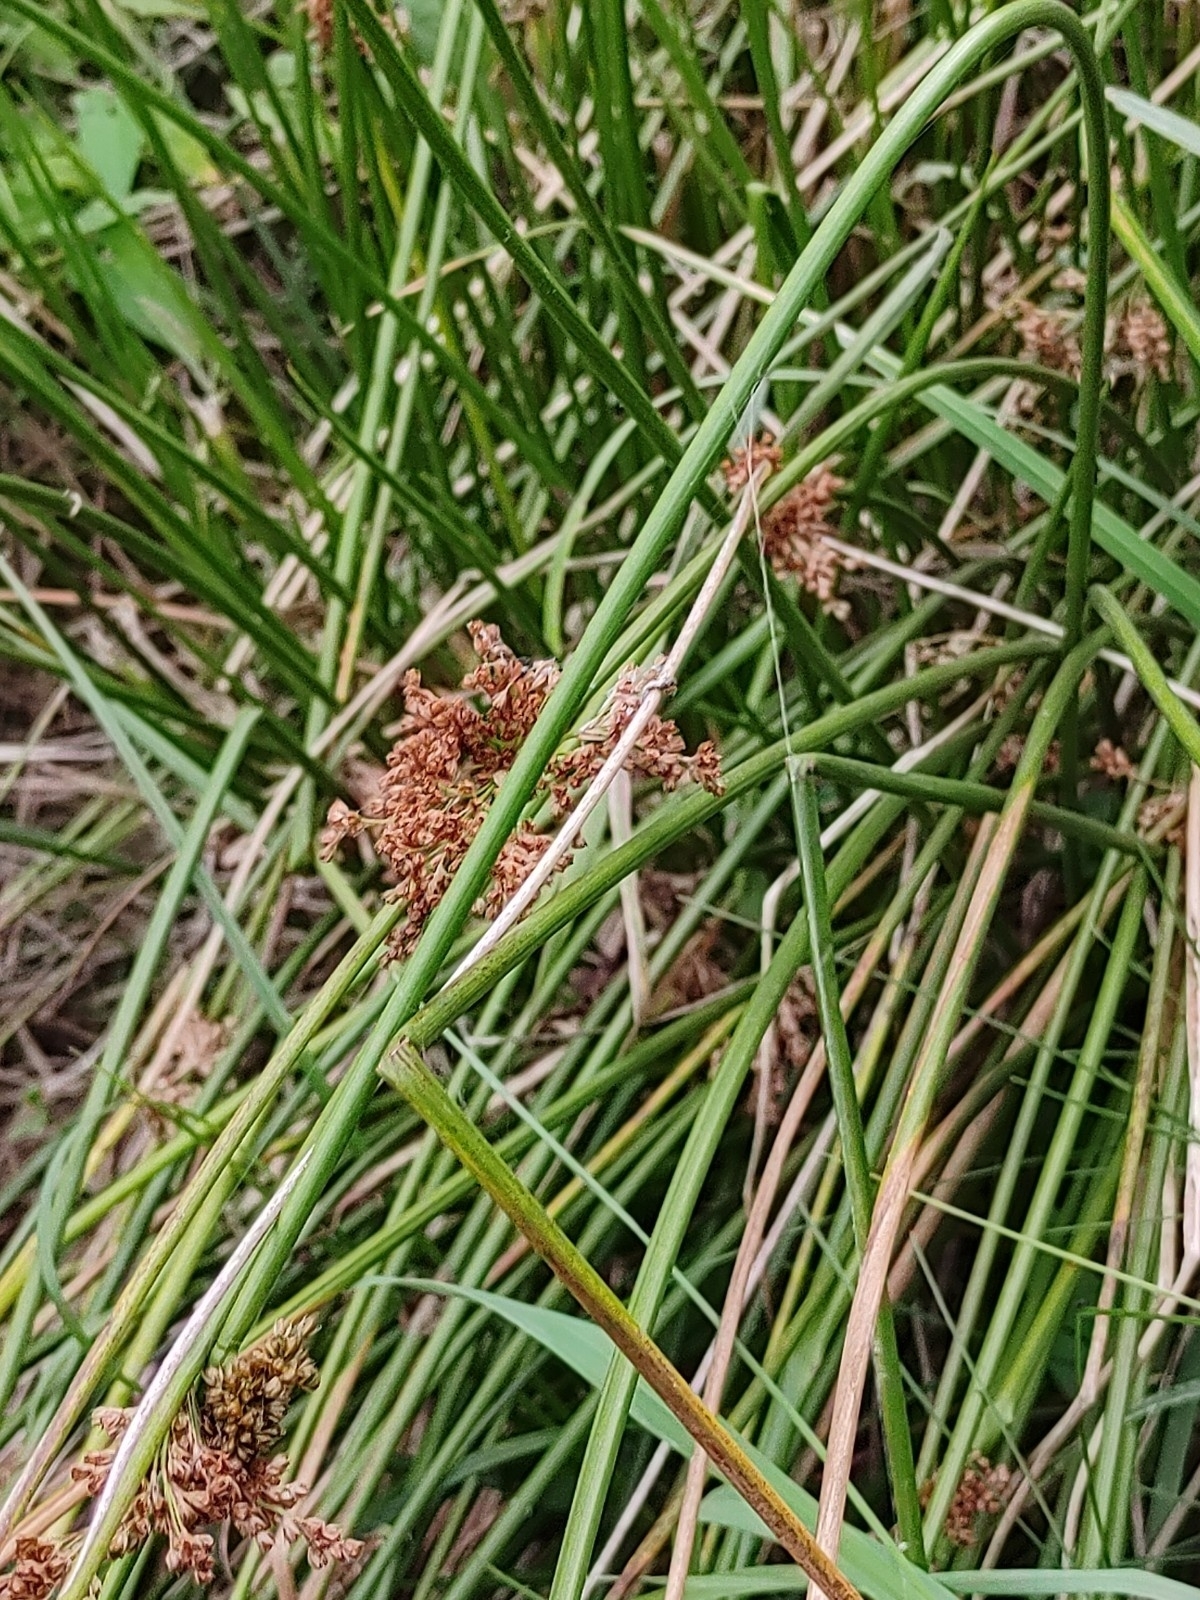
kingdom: Plantae
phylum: Tracheophyta
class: Liliopsida
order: Poales
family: Juncaceae
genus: Juncus
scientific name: Juncus effusus
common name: Soft rush
